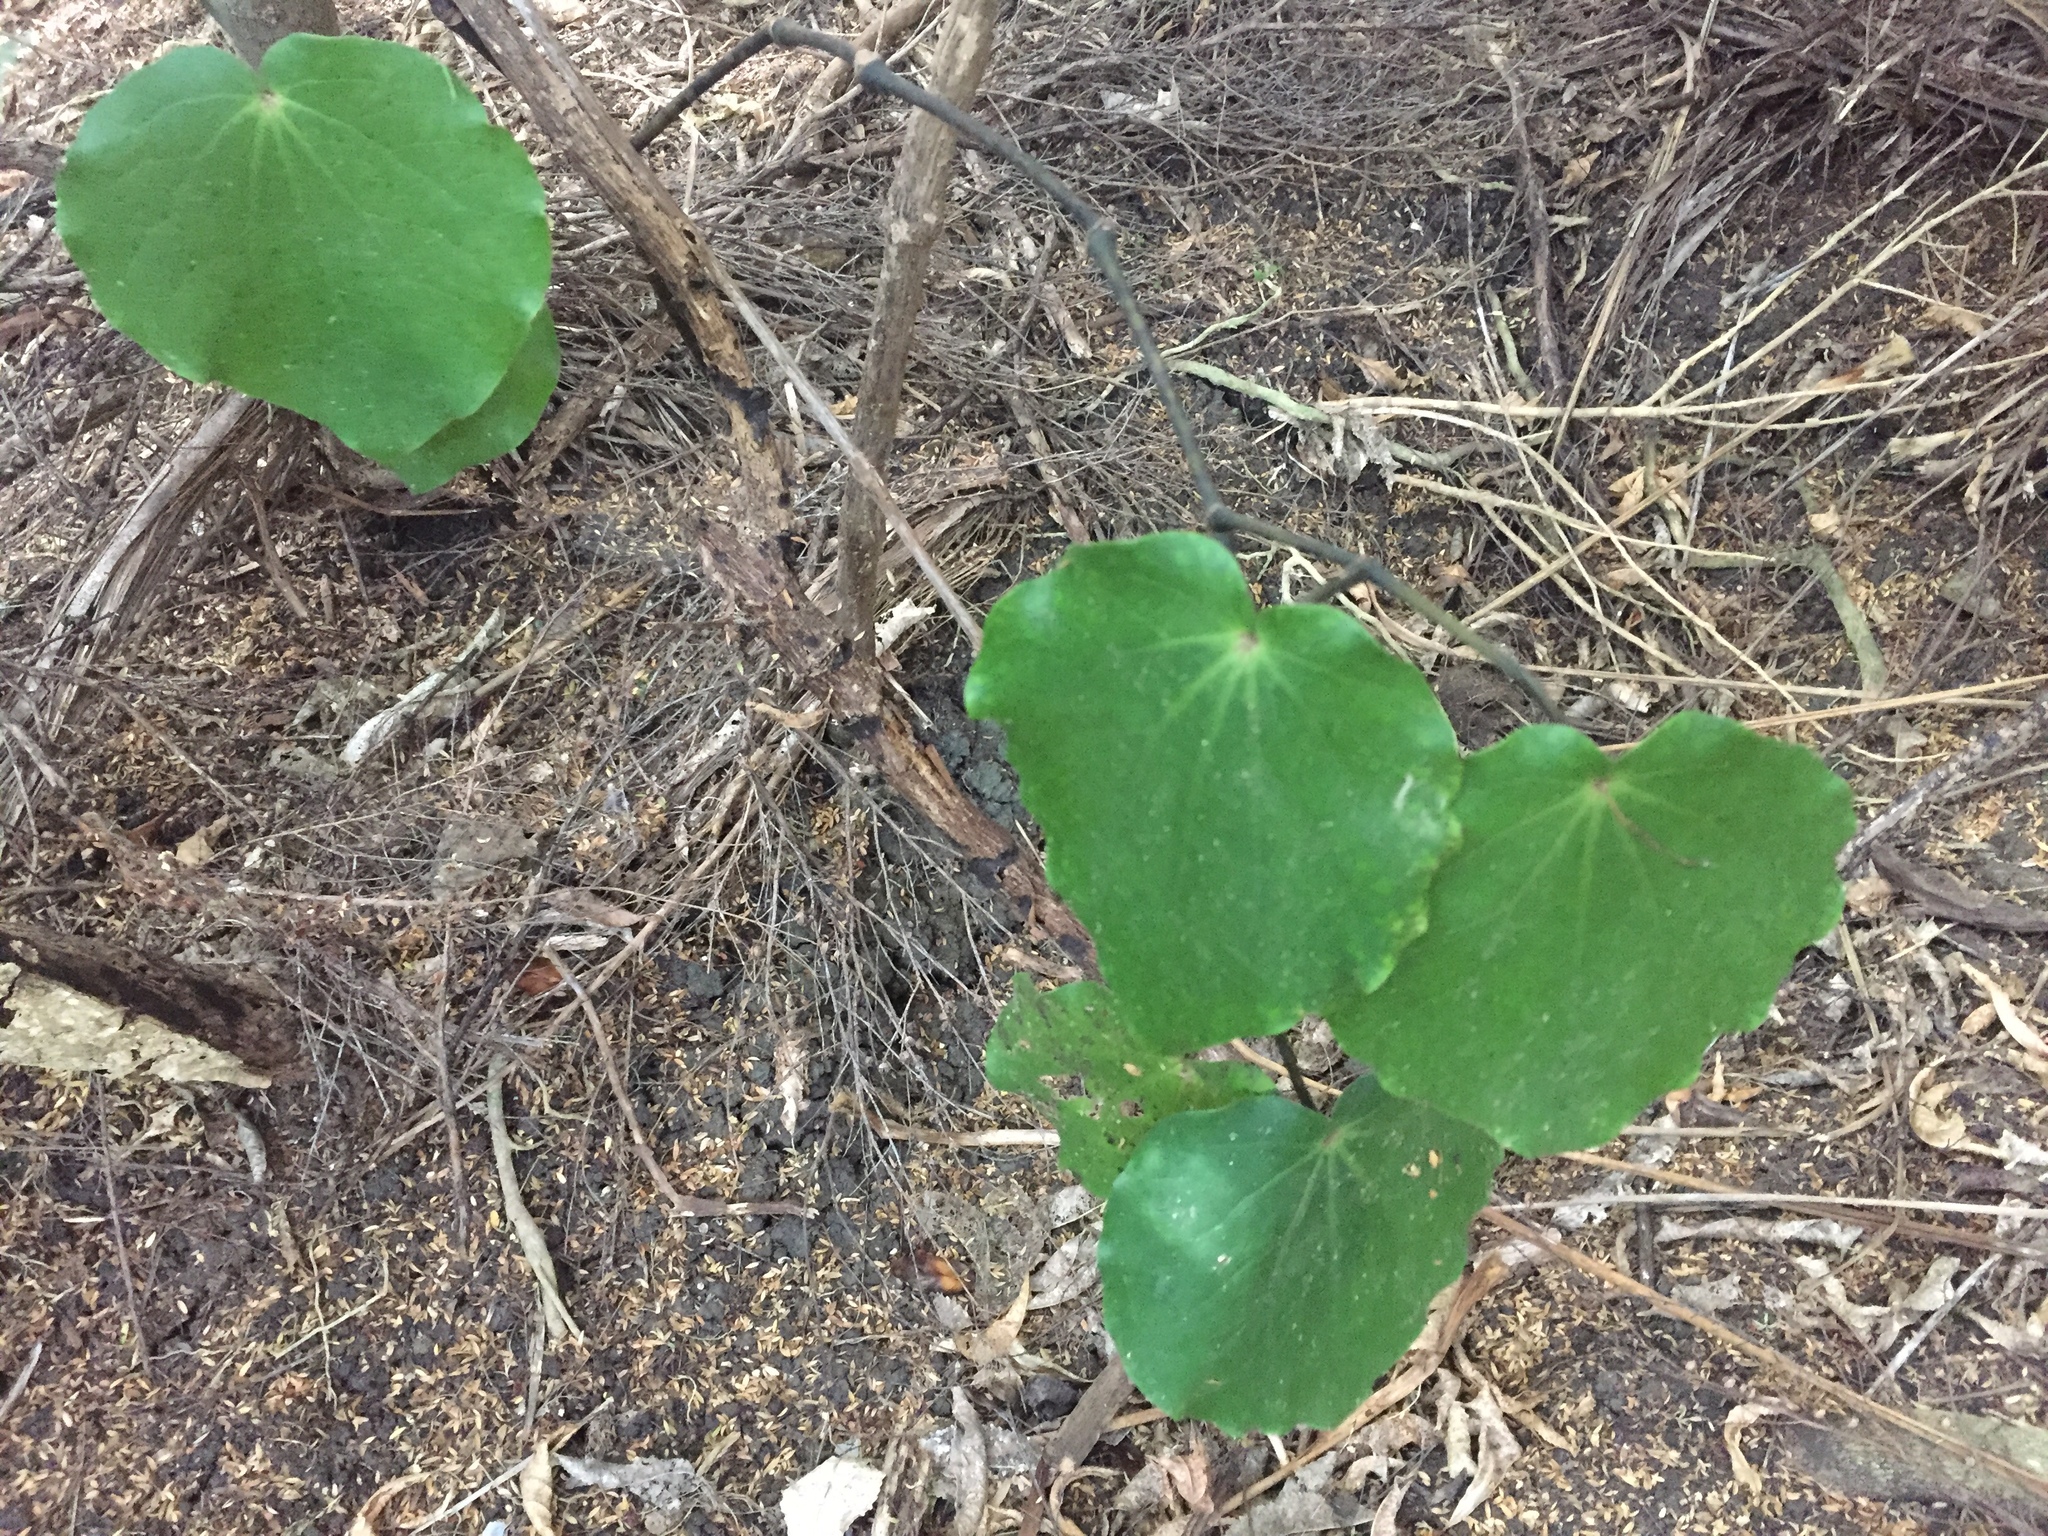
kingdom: Plantae
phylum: Tracheophyta
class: Magnoliopsida
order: Piperales
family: Piperaceae
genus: Macropiper
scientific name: Macropiper excelsum
